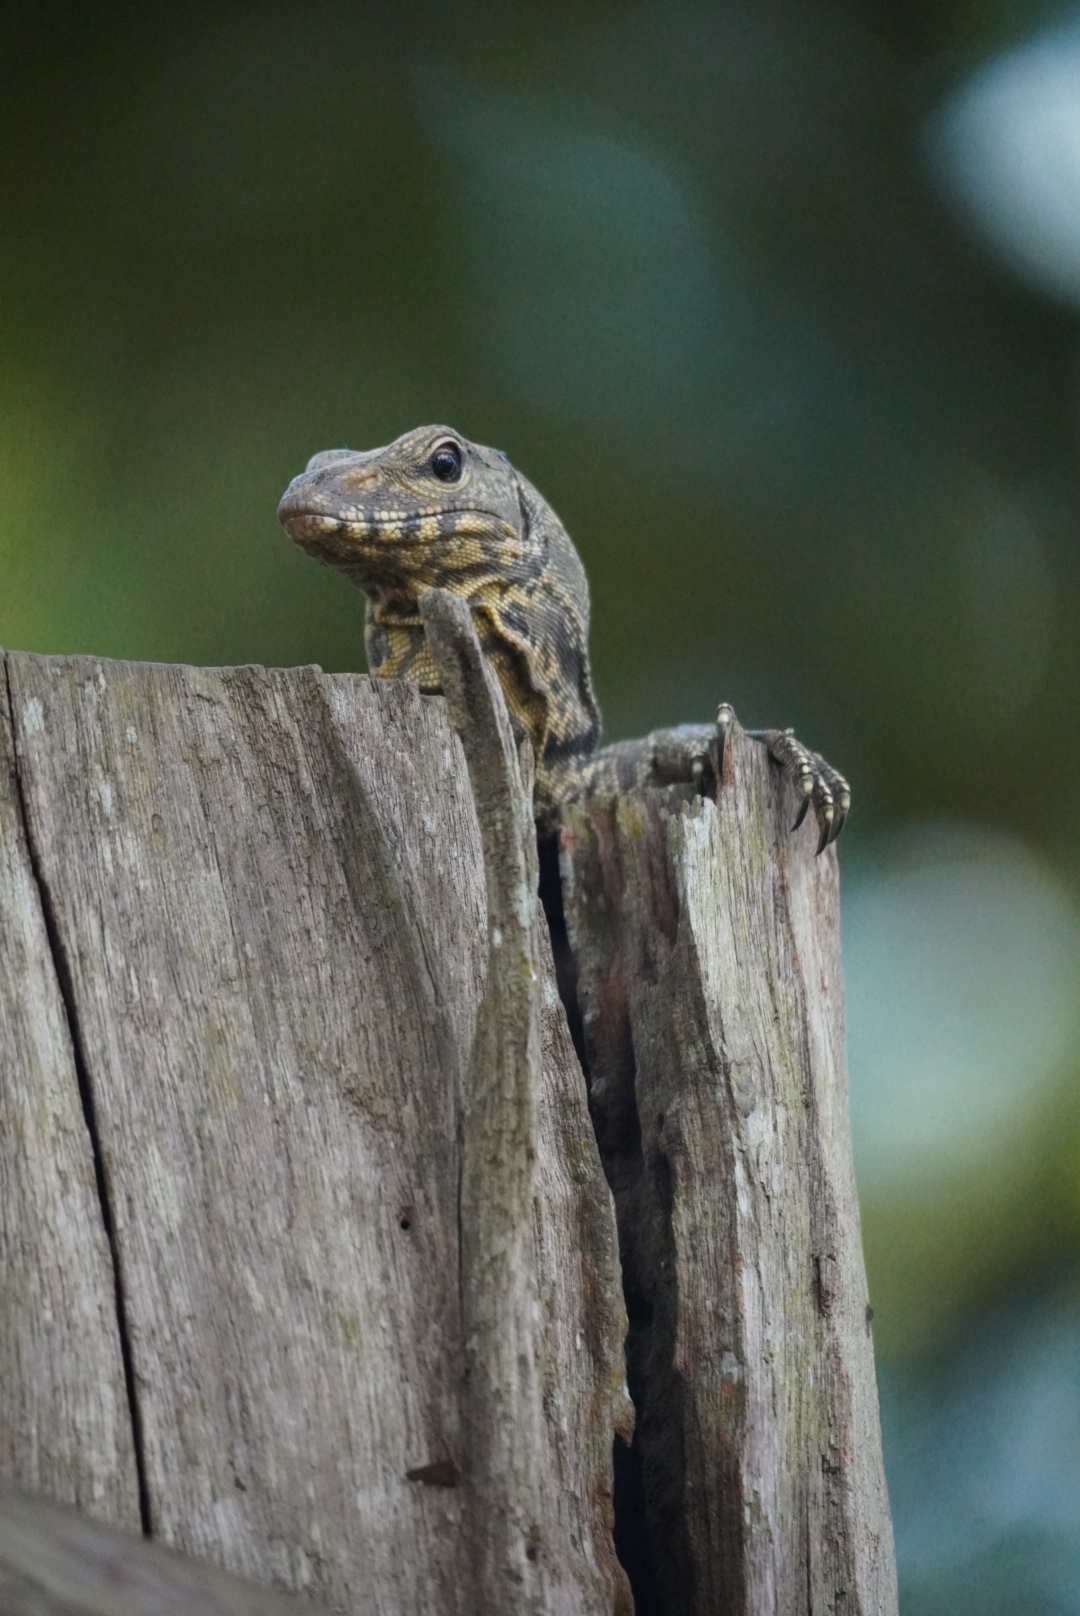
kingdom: Animalia
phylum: Chordata
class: Squamata
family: Varanidae
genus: Varanus
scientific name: Varanus nebulosus
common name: Clouded monitor
